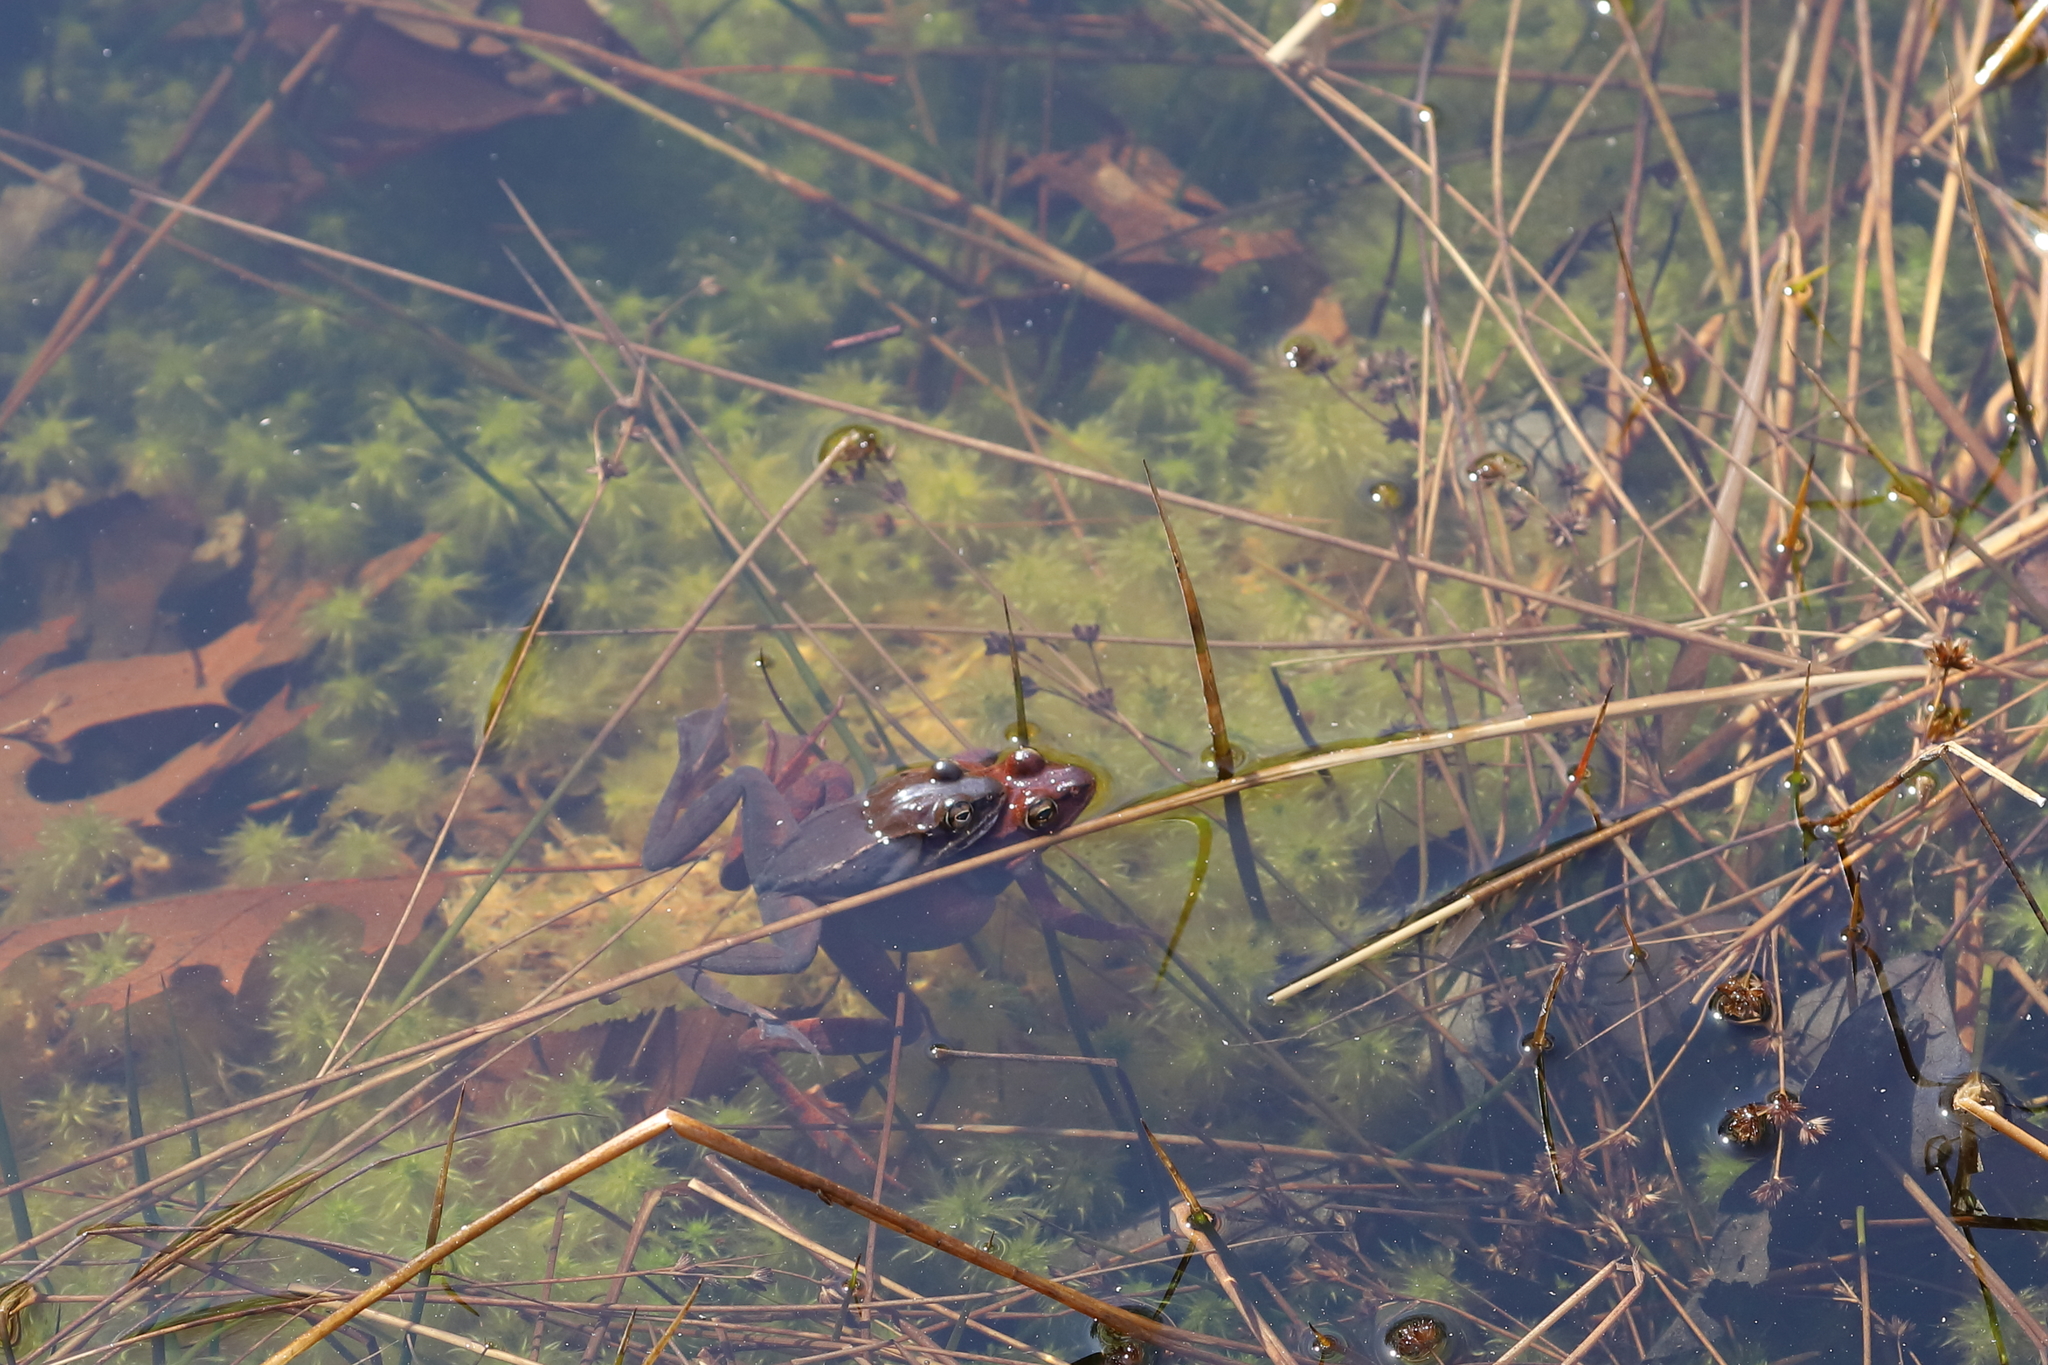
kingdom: Animalia
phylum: Chordata
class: Amphibia
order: Anura
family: Ranidae
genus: Lithobates
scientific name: Lithobates sylvaticus
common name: Wood frog
